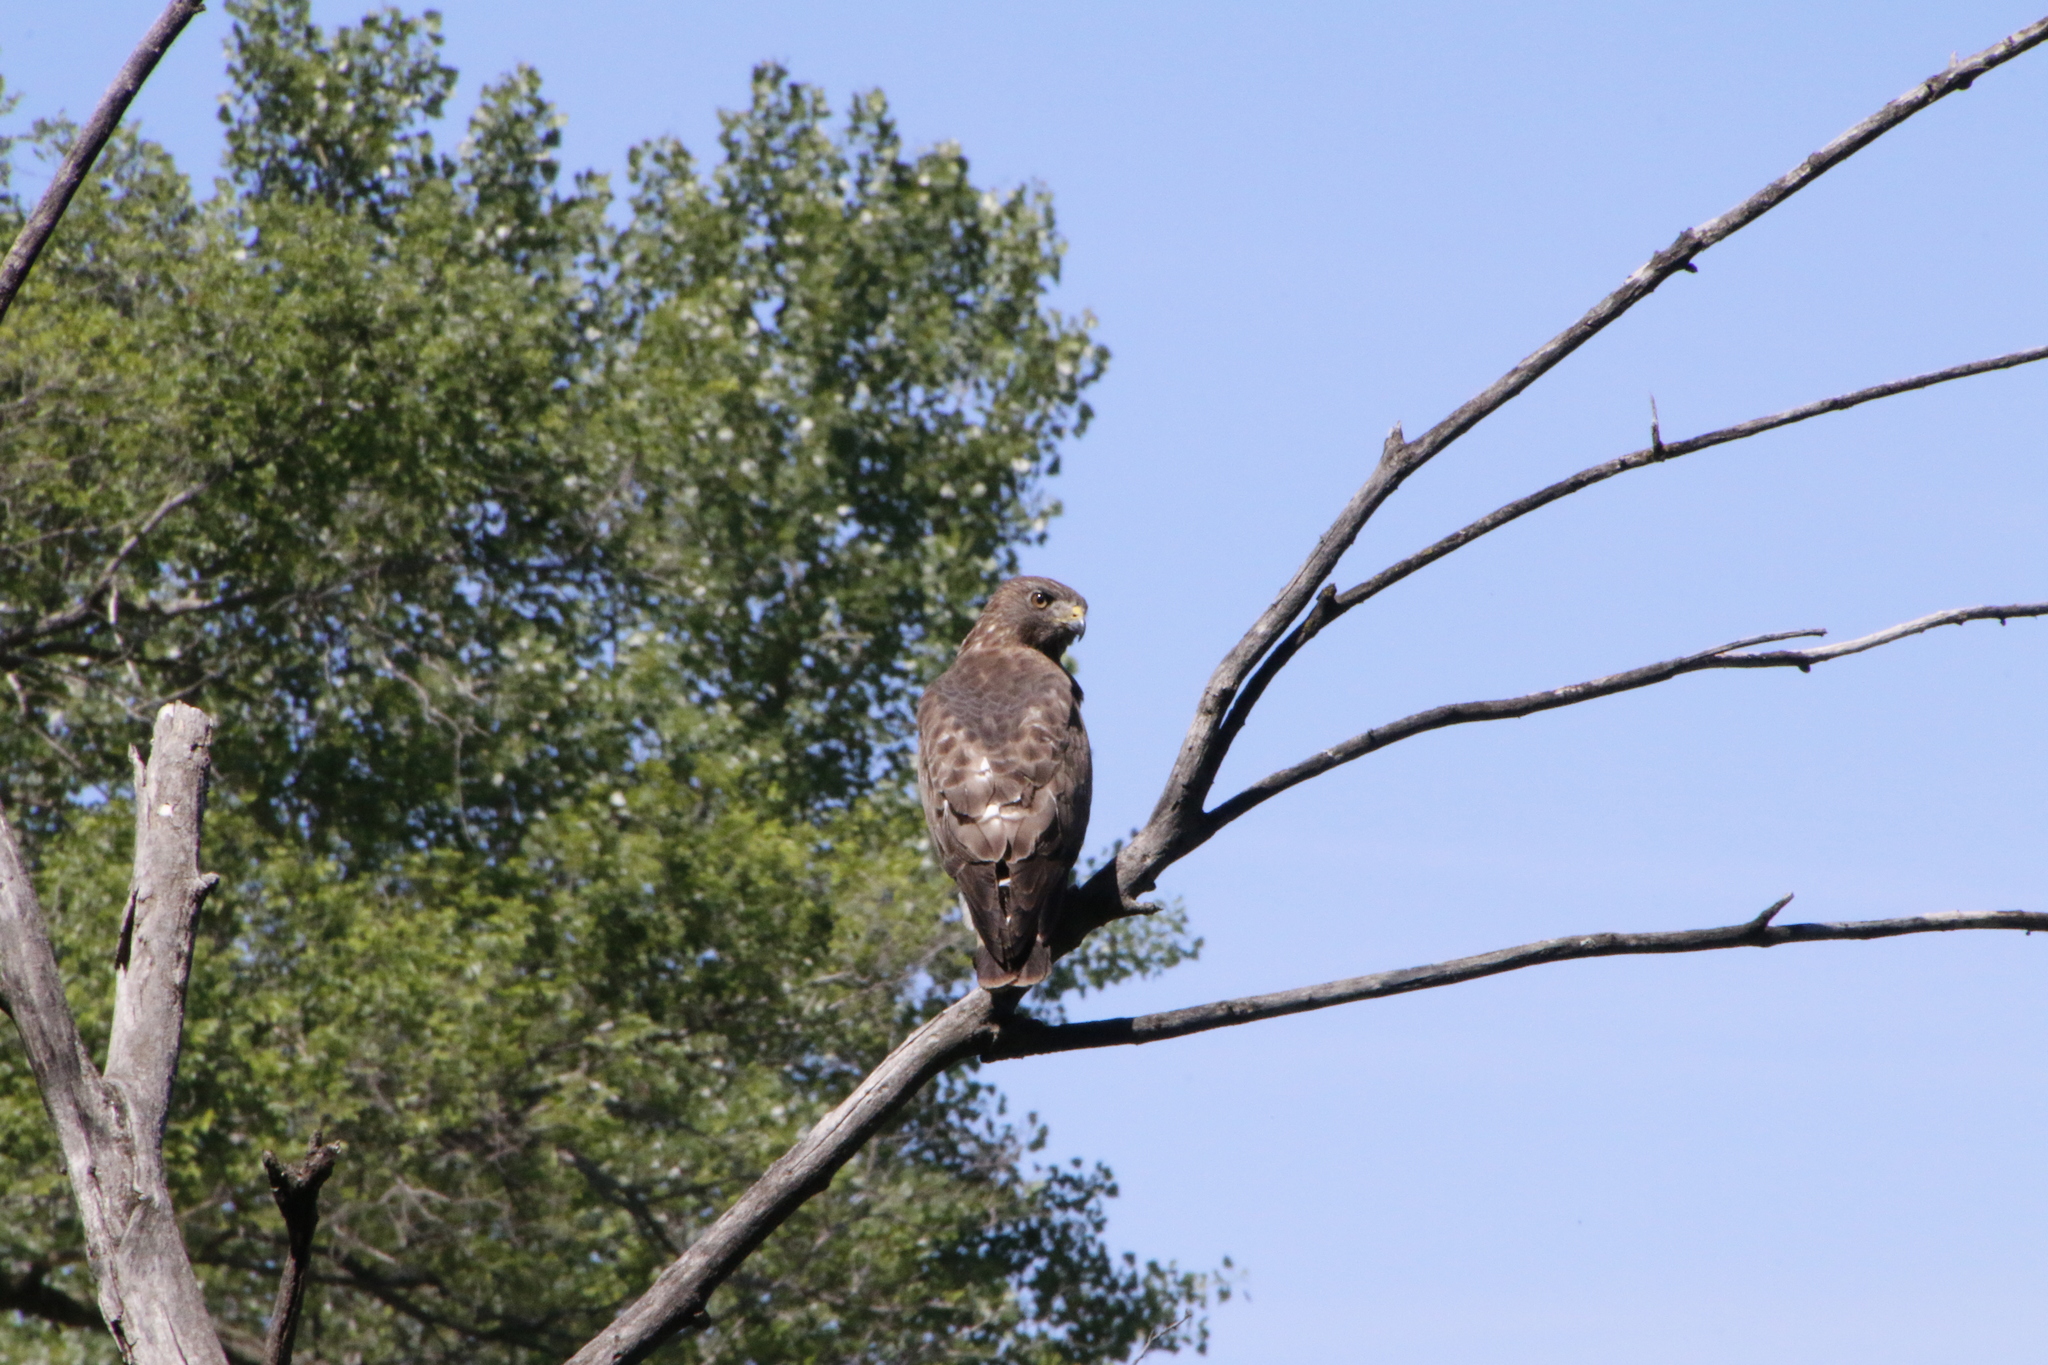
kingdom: Animalia
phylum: Chordata
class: Aves
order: Accipitriformes
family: Accipitridae
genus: Buteo
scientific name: Buteo platypterus
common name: Broad-winged hawk
